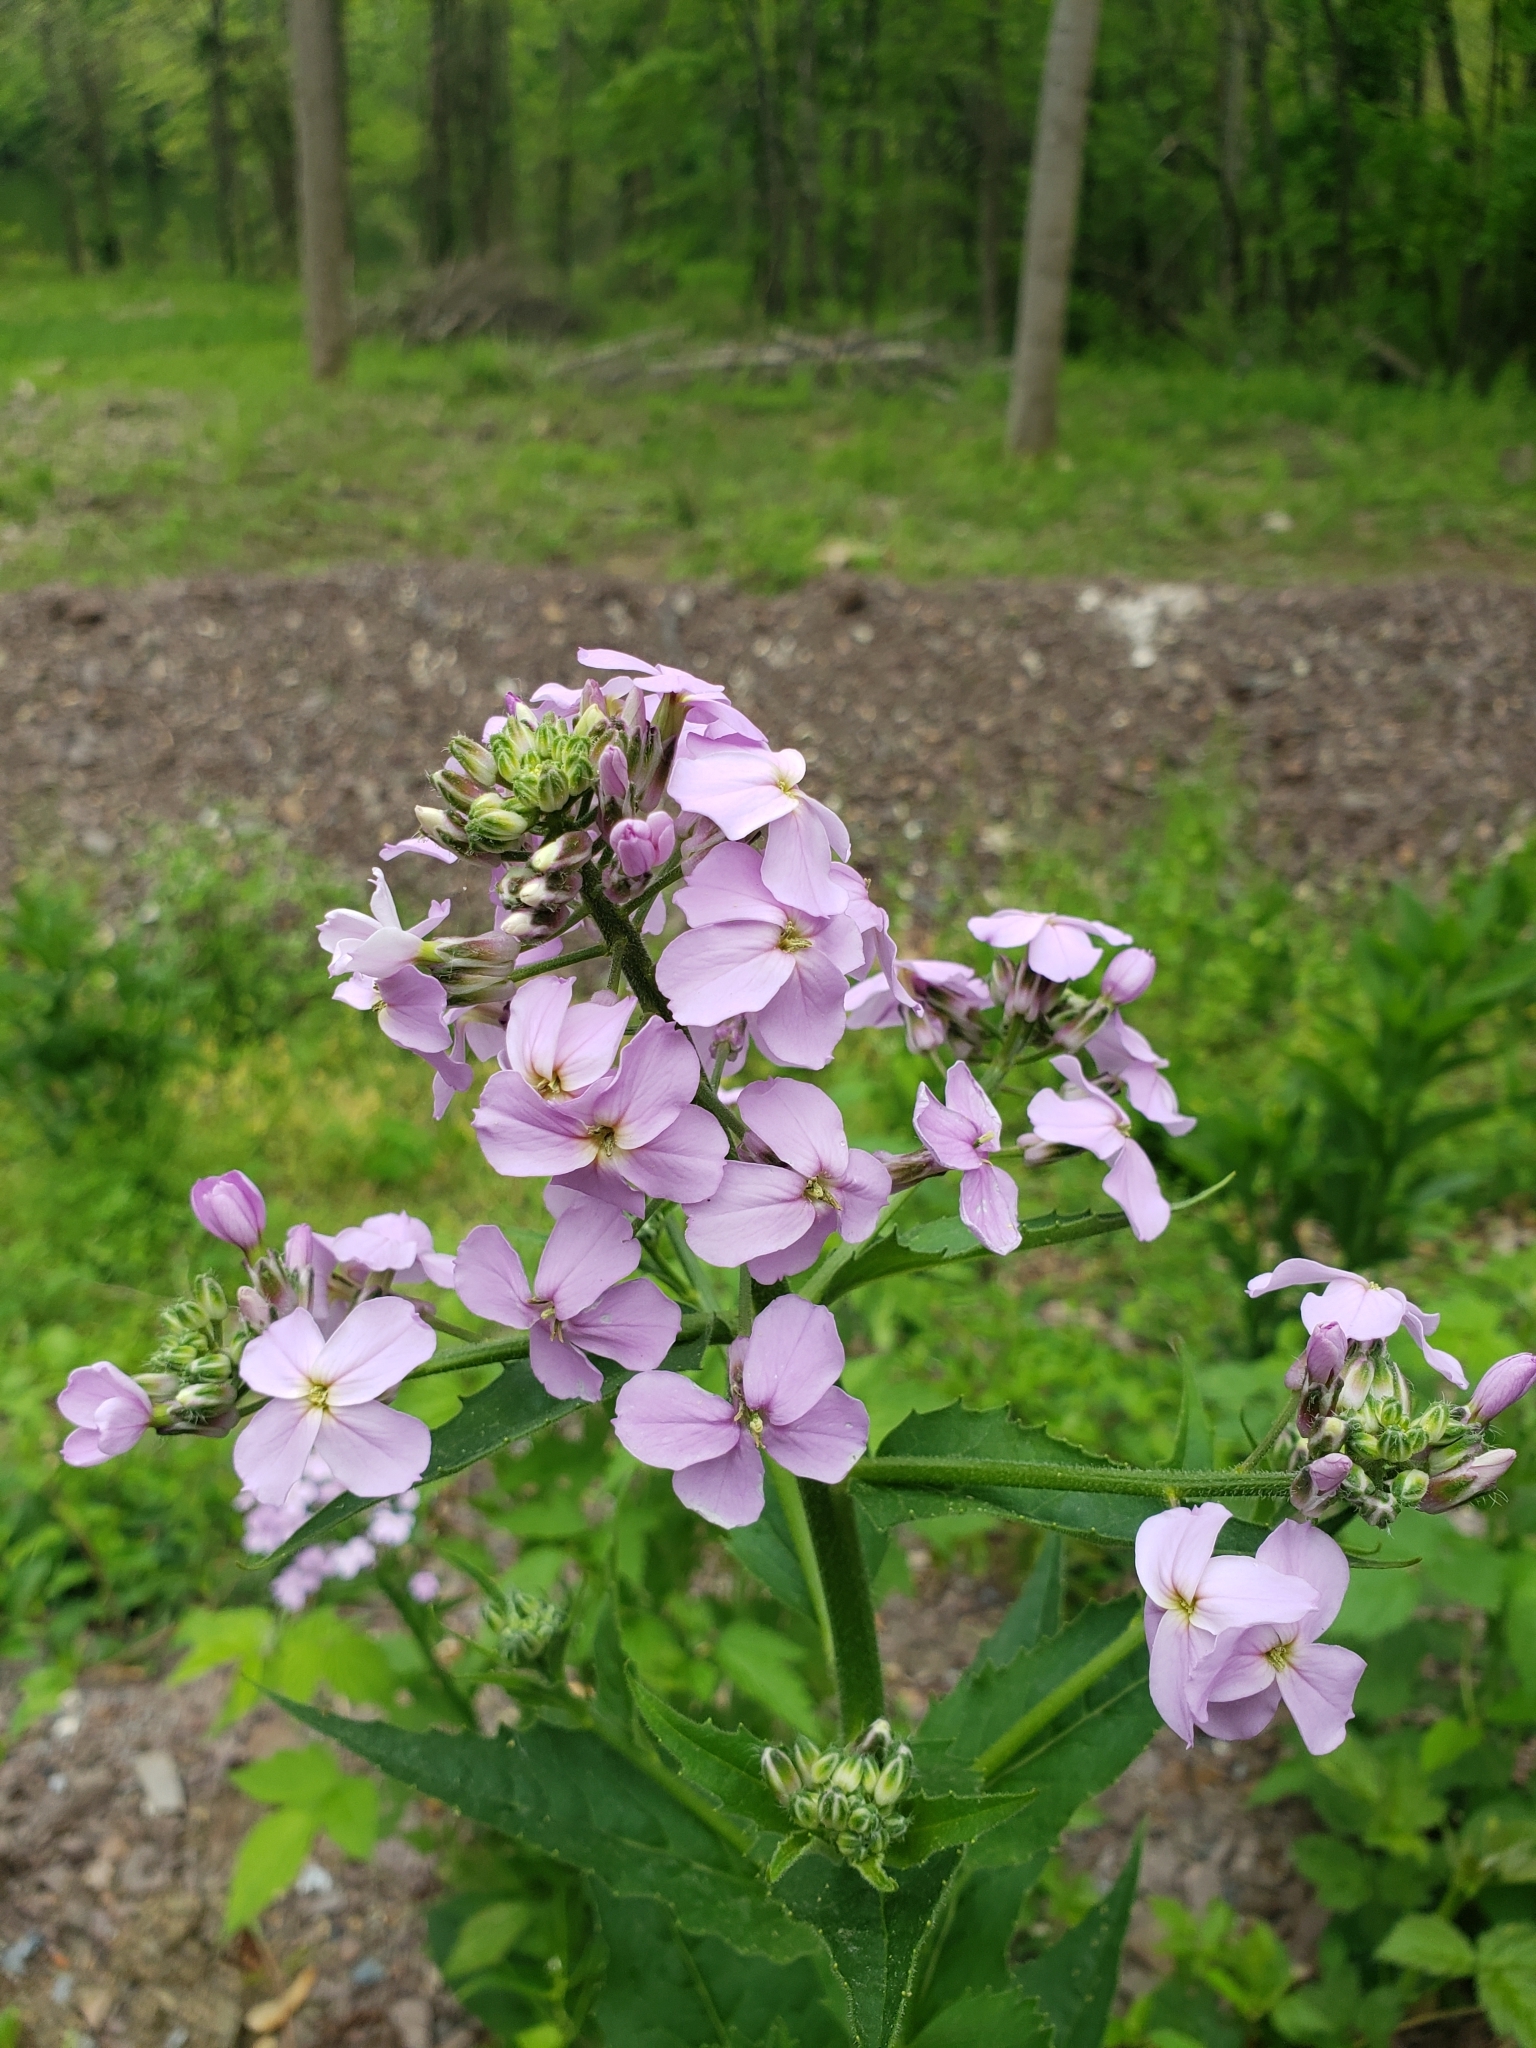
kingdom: Plantae
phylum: Tracheophyta
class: Magnoliopsida
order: Brassicales
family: Brassicaceae
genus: Hesperis
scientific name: Hesperis matronalis
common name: Dame's-violet
